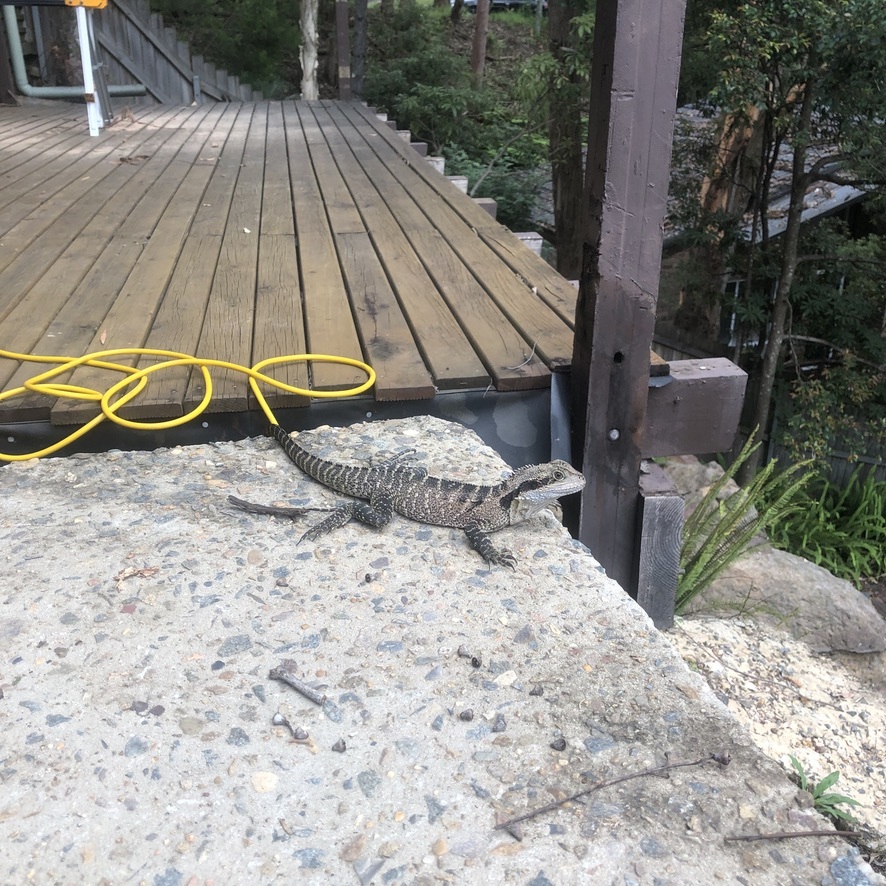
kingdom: Animalia
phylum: Chordata
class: Squamata
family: Agamidae
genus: Intellagama
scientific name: Intellagama lesueurii
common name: Eastern water dragon
